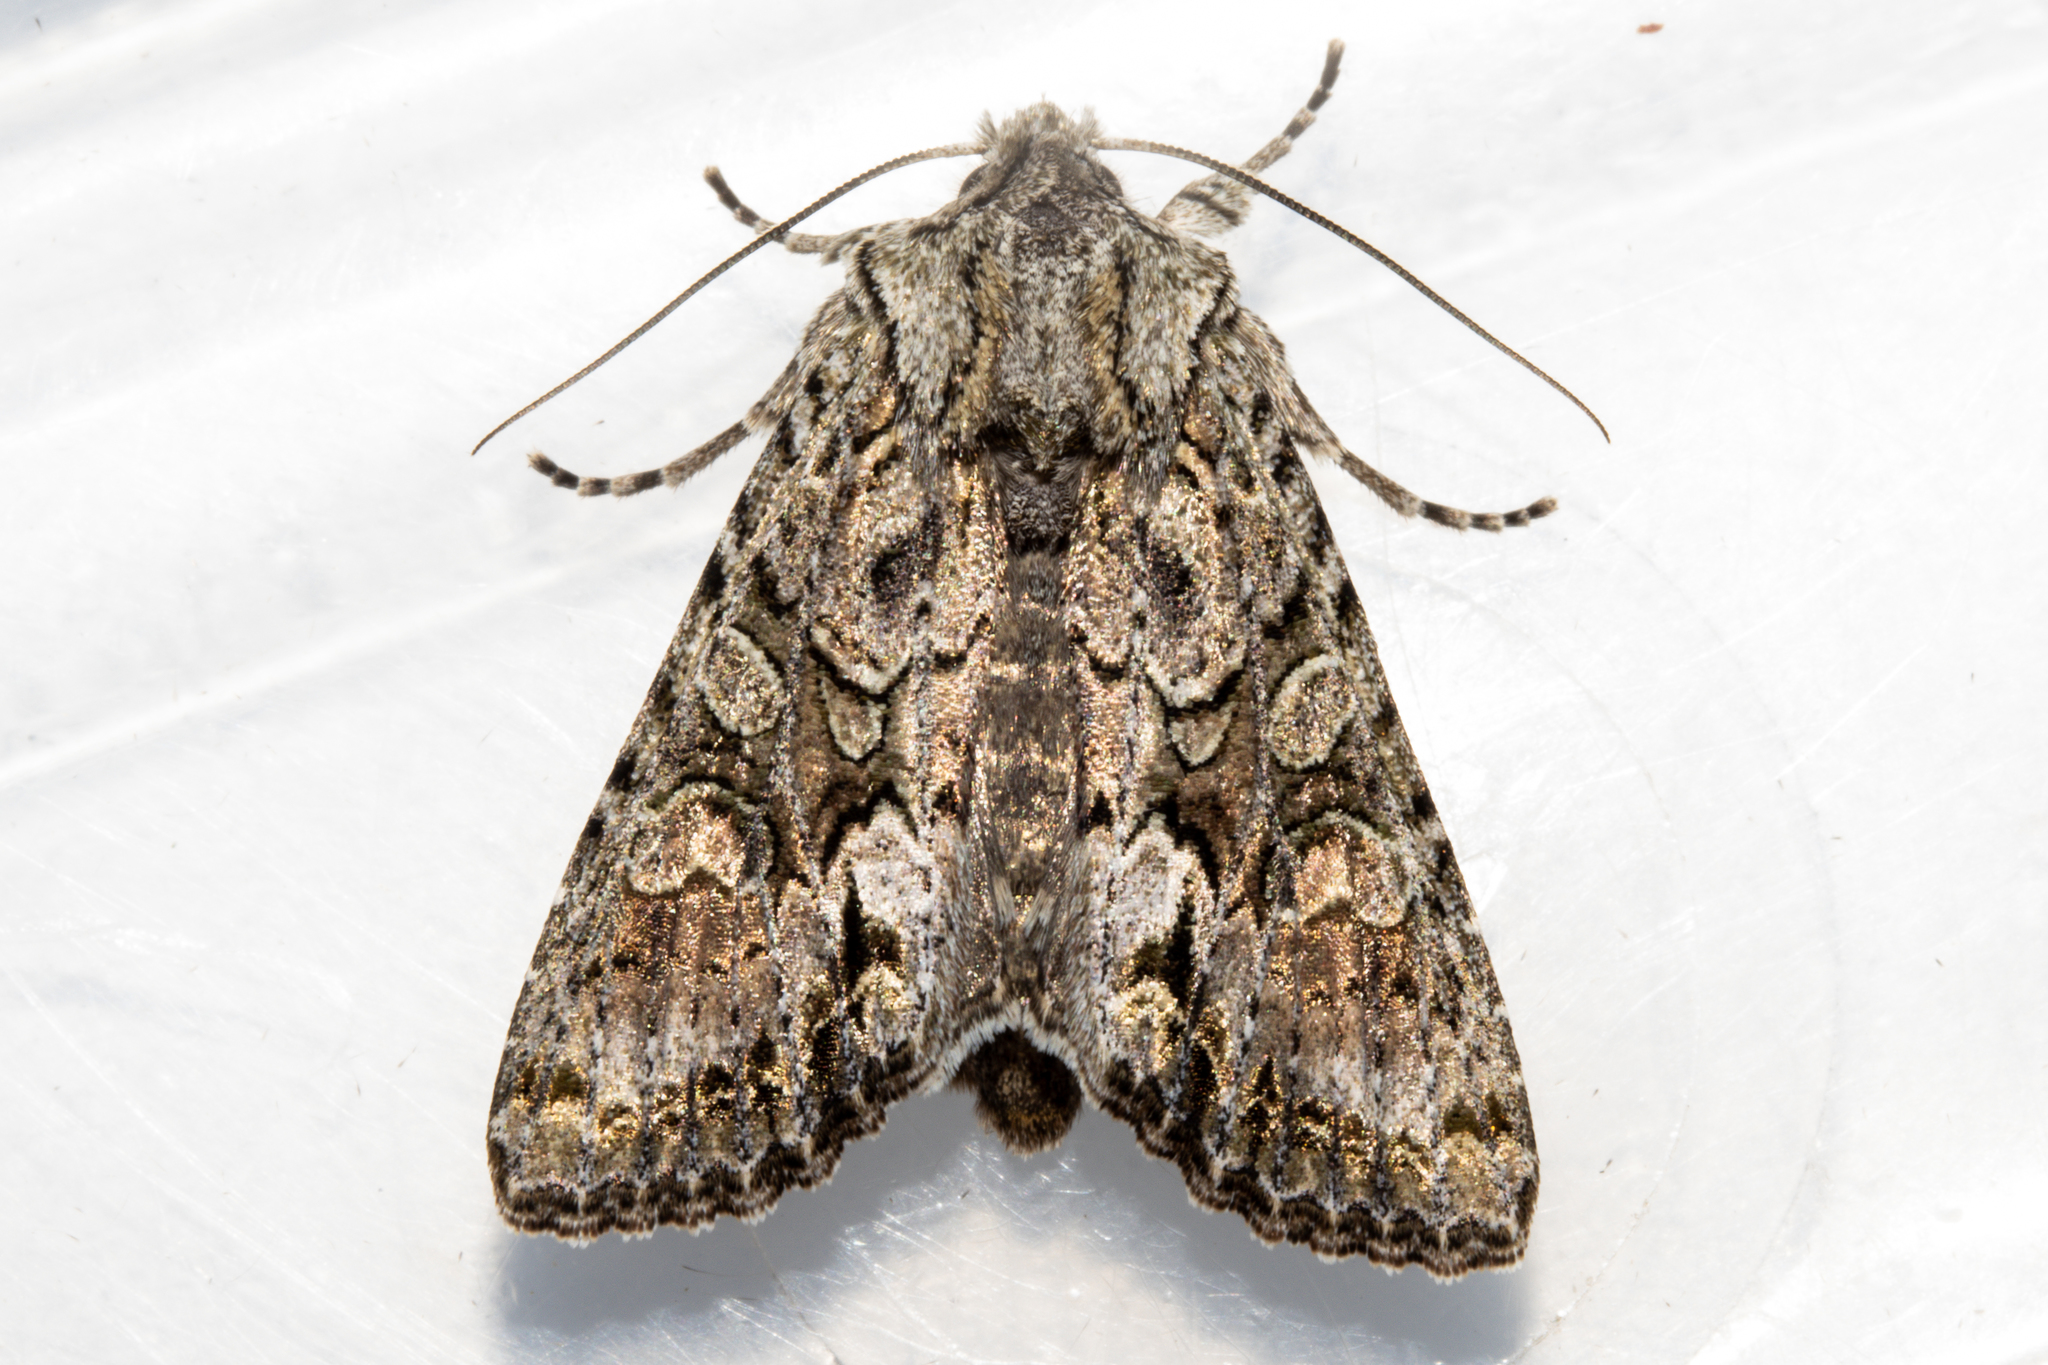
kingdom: Animalia
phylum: Arthropoda
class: Insecta
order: Lepidoptera
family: Noctuidae
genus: Ichneutica
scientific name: Ichneutica mutans
